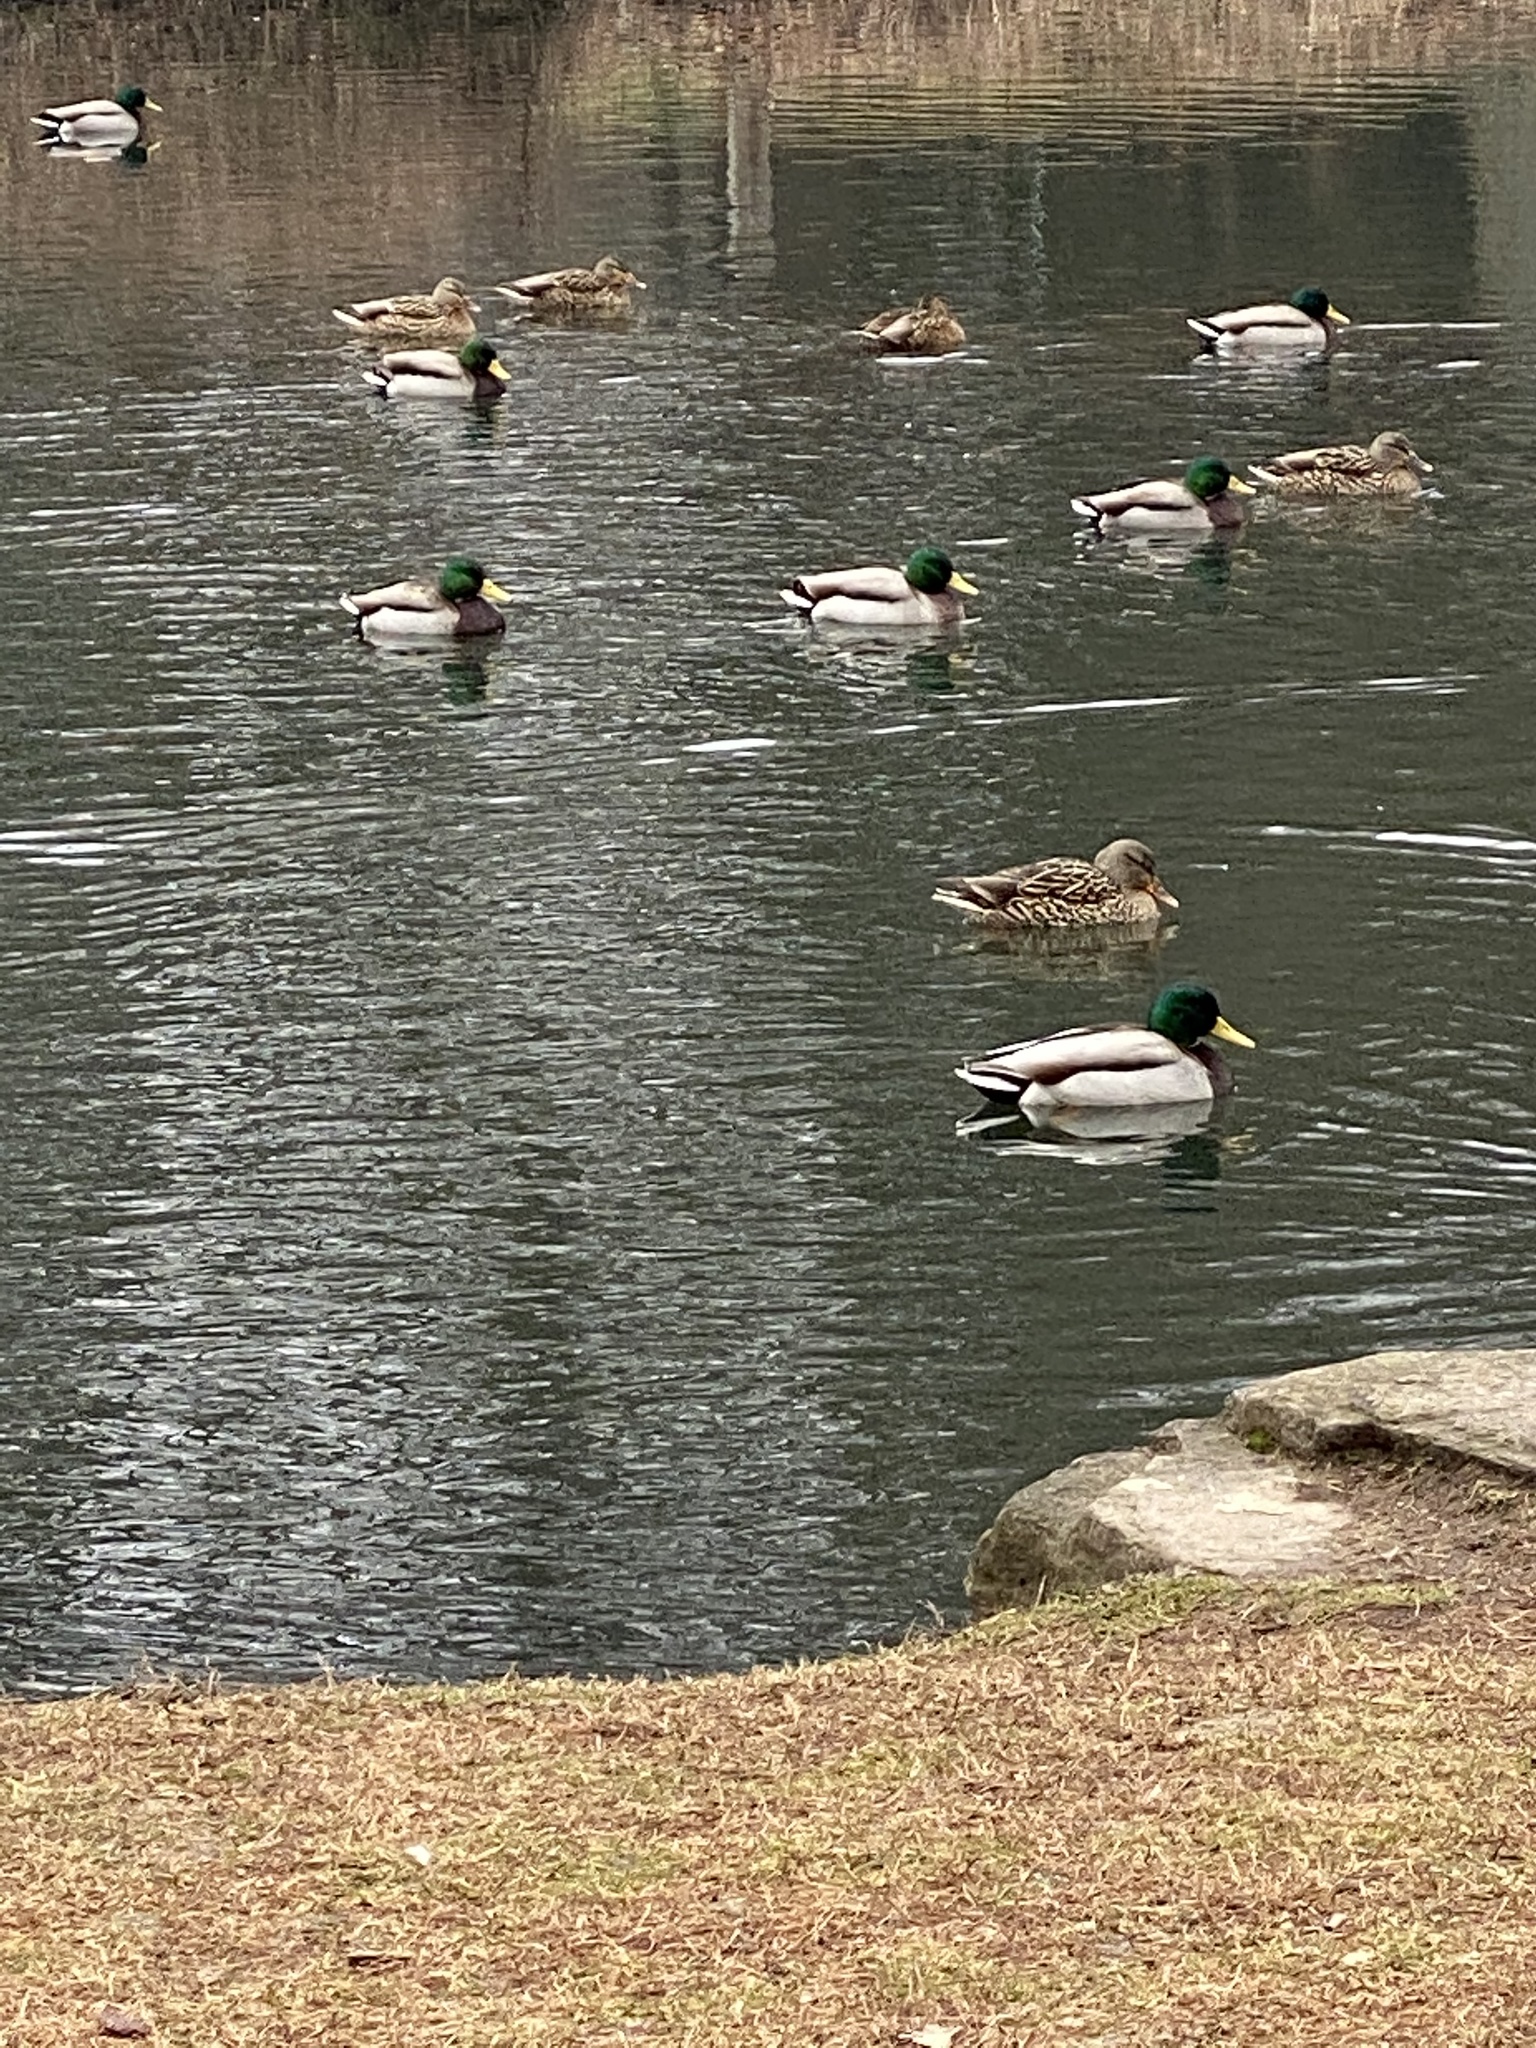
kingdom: Animalia
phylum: Chordata
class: Aves
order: Anseriformes
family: Anatidae
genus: Anas
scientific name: Anas platyrhynchos
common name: Mallard
